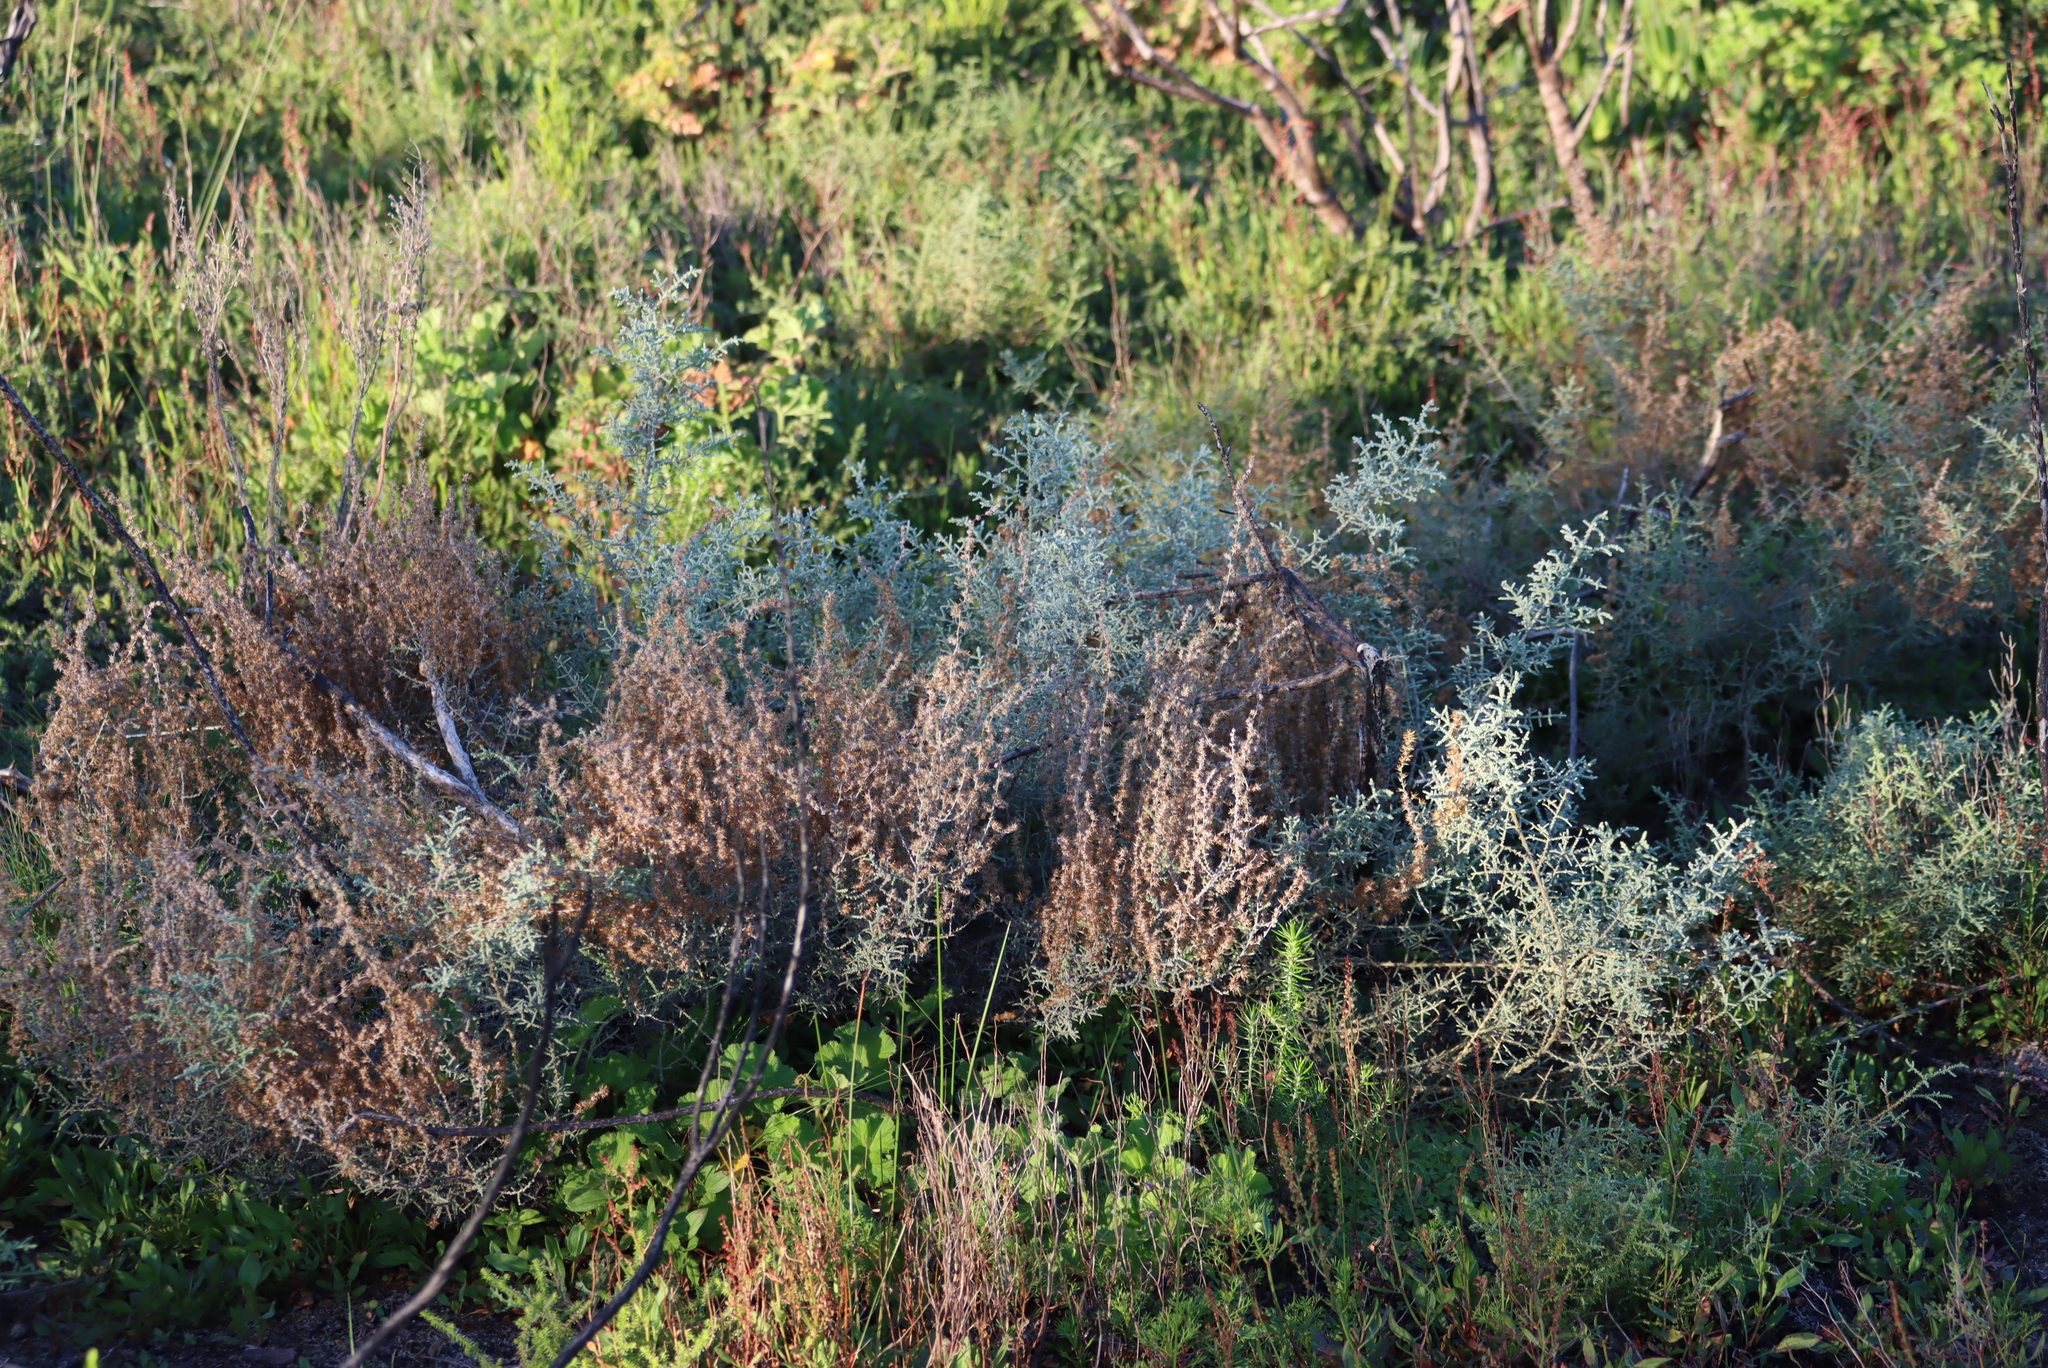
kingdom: Plantae
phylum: Tracheophyta
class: Magnoliopsida
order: Asterales
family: Asteraceae
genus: Seriphium
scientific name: Seriphium plumosum
